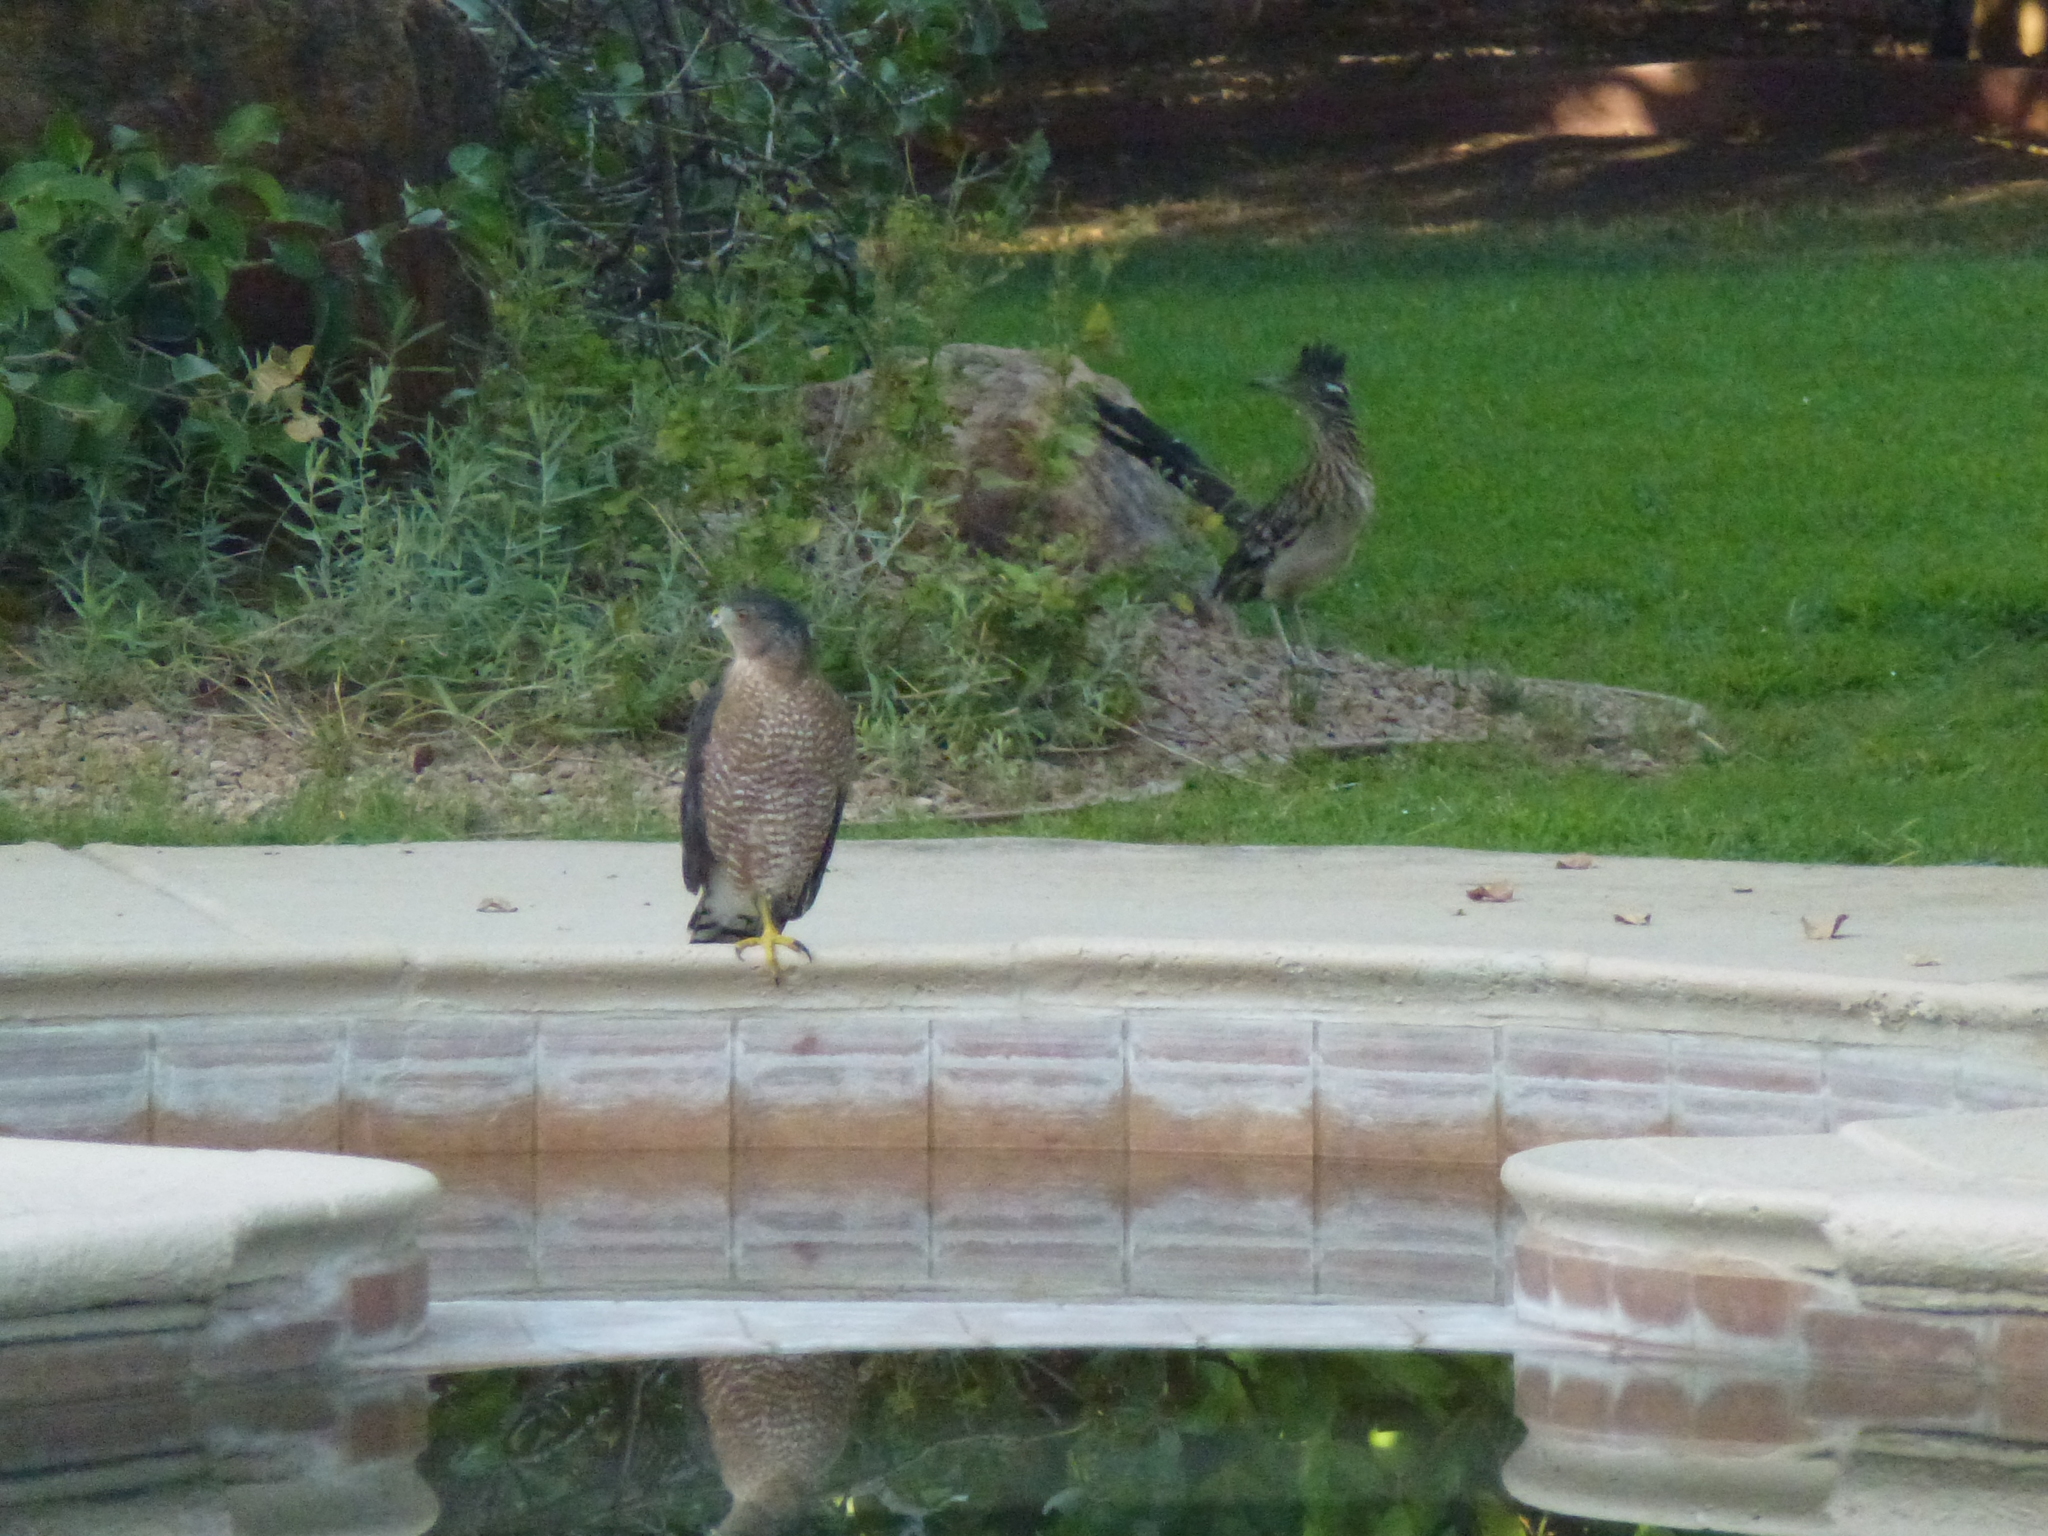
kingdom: Animalia
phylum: Chordata
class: Aves
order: Cuculiformes
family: Cuculidae
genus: Geococcyx
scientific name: Geococcyx californianus
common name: Greater roadrunner
